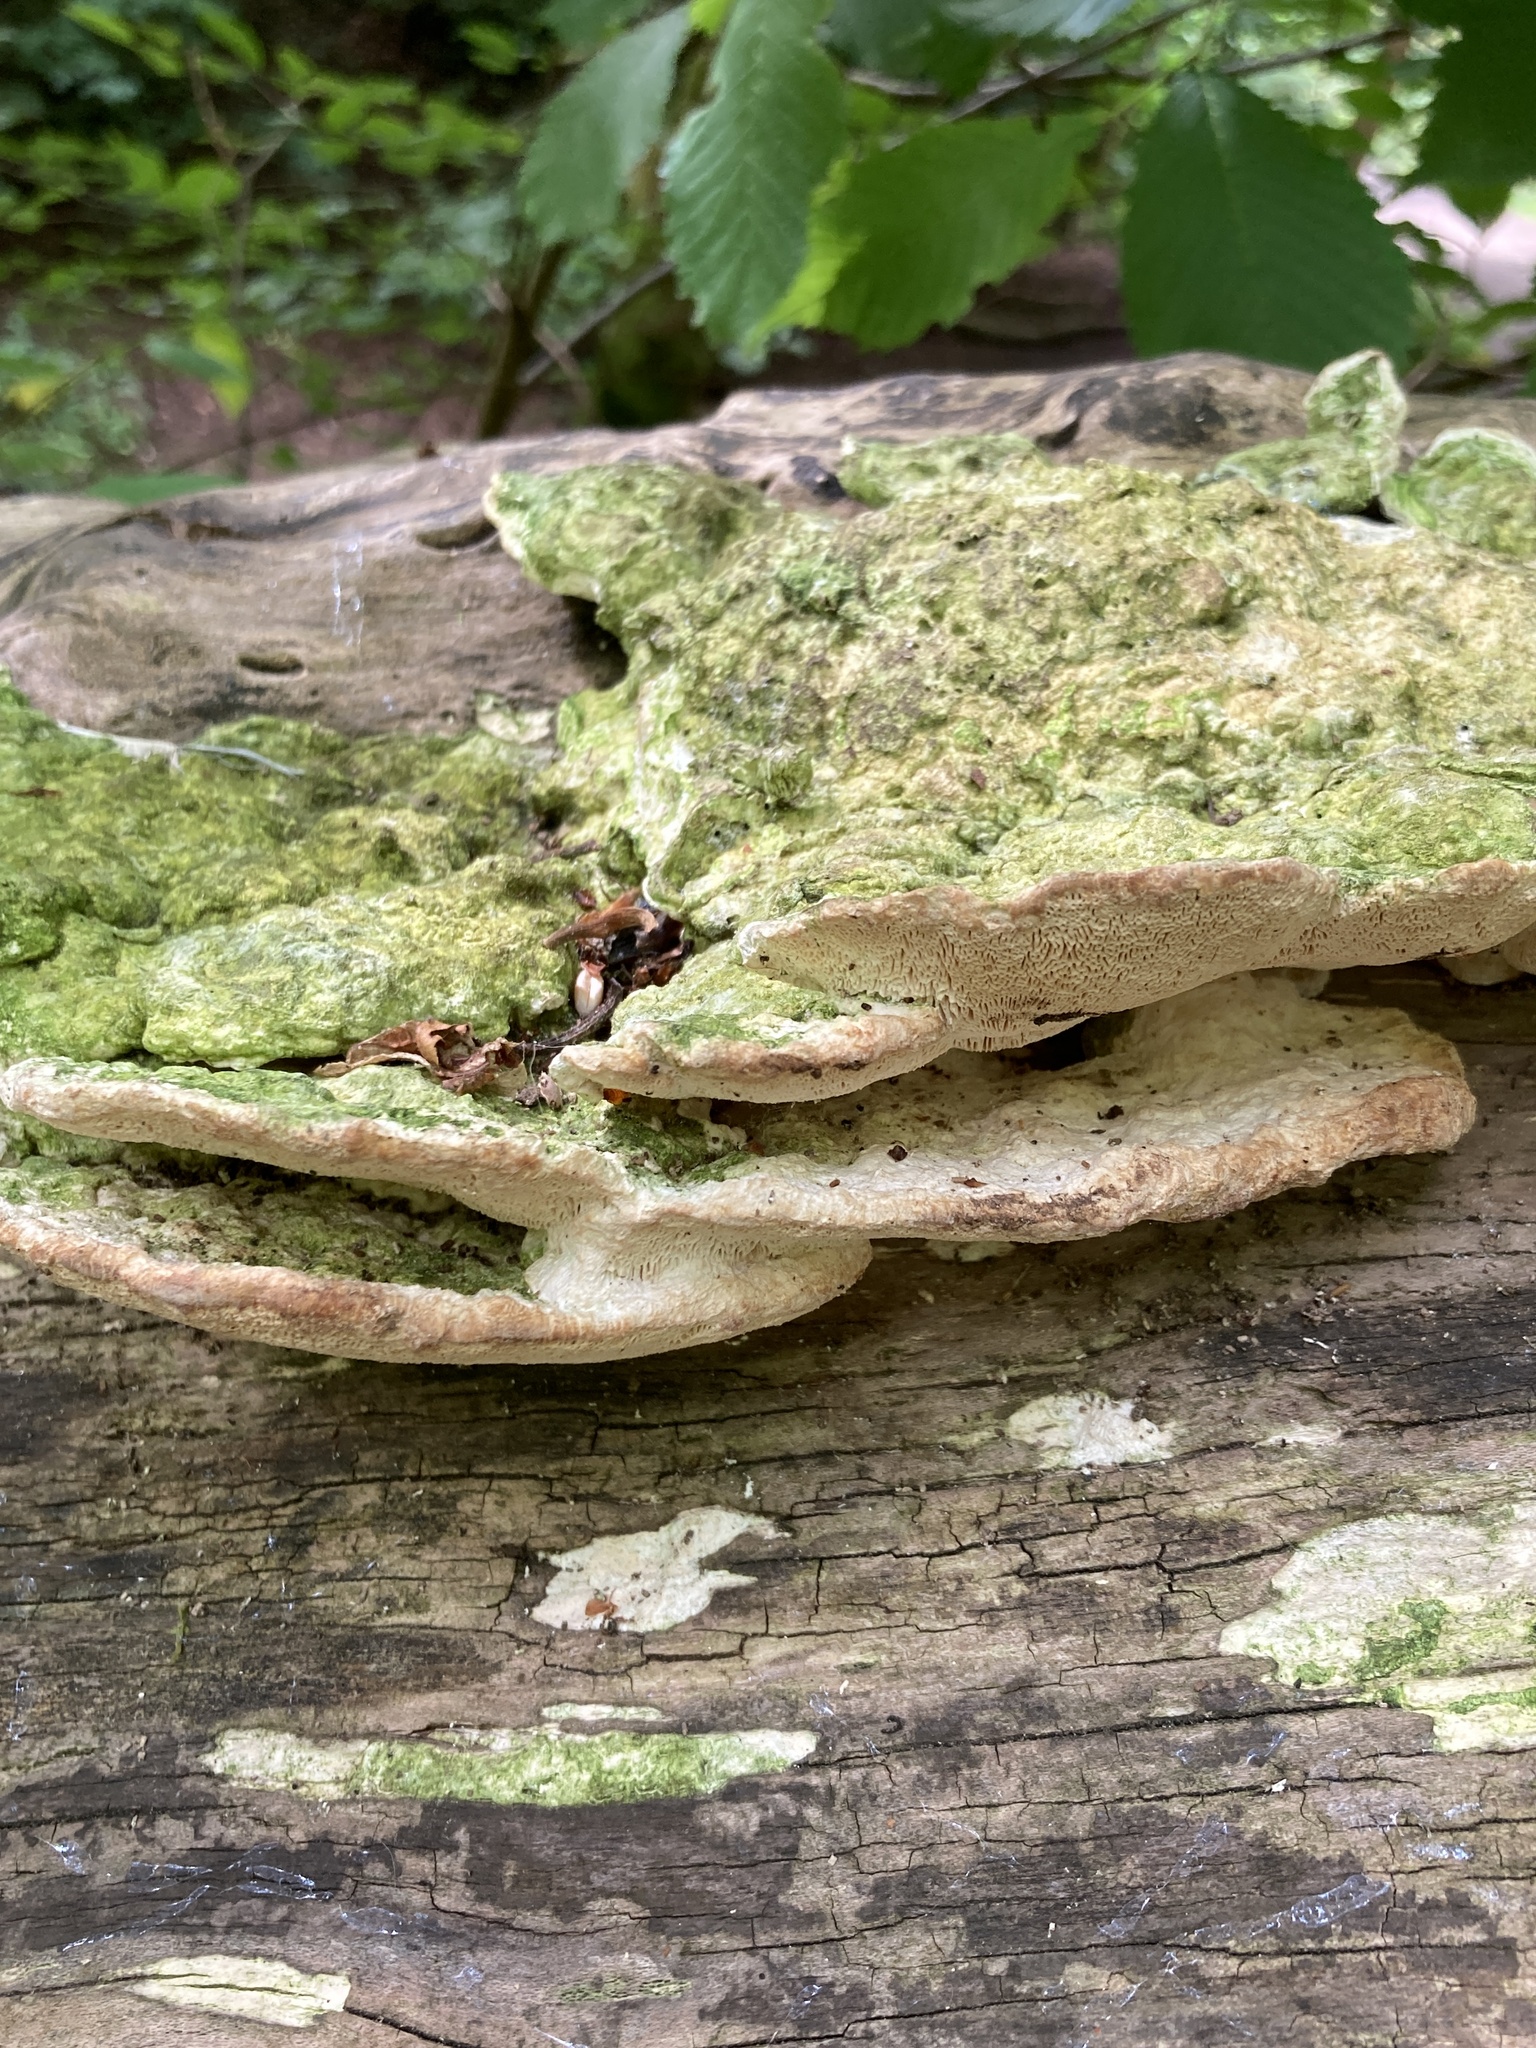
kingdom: Fungi
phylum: Basidiomycota
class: Agaricomycetes
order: Polyporales
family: Polyporaceae
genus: Trametes
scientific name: Trametes gibbosa
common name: Lumpy bracket
